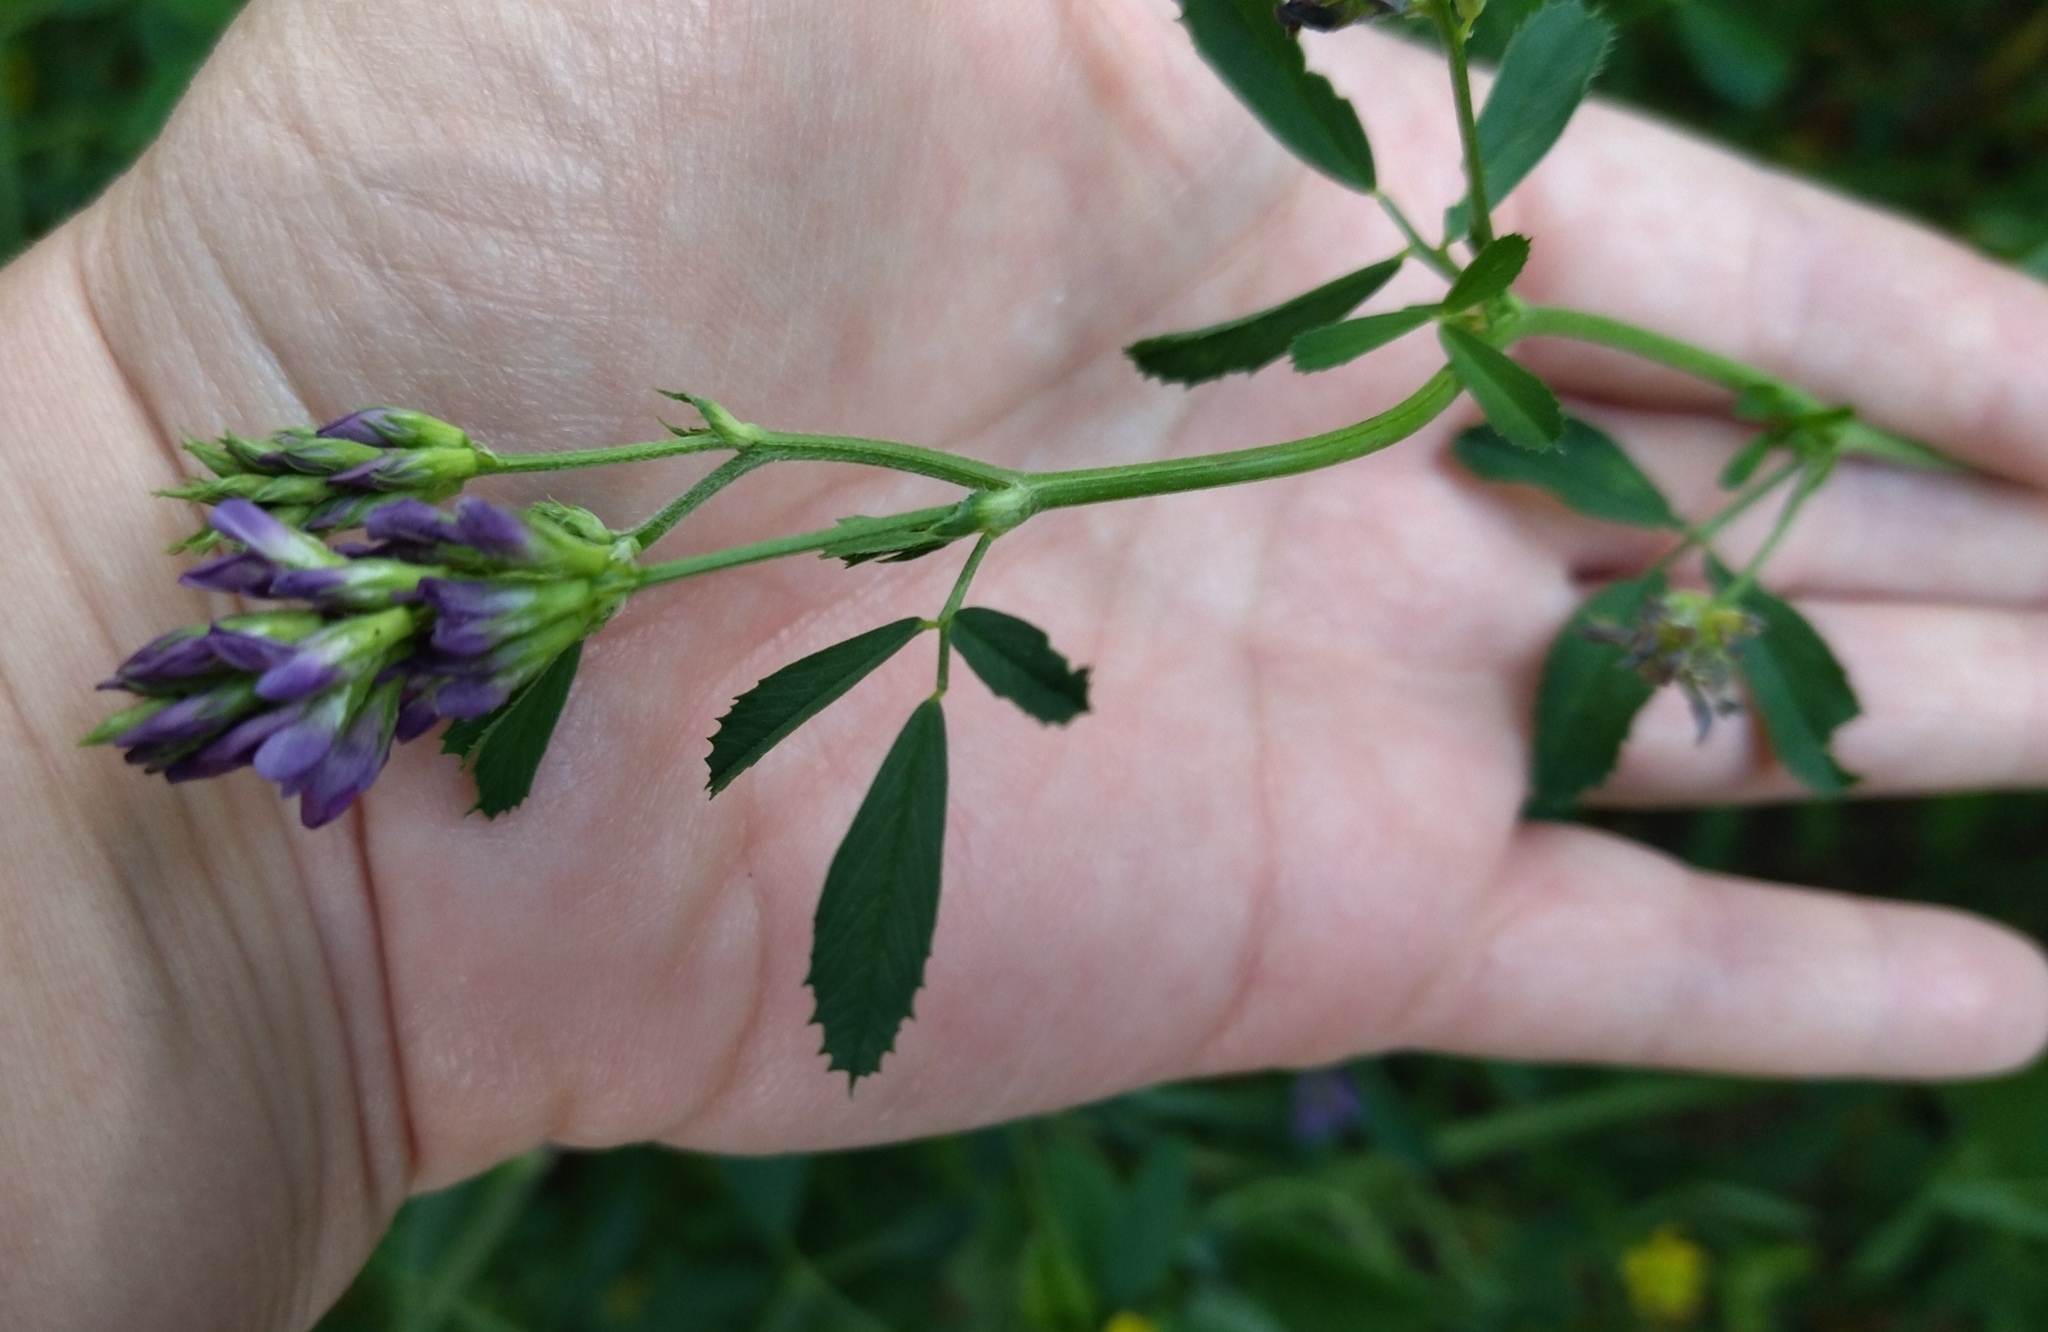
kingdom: Plantae
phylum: Tracheophyta
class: Magnoliopsida
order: Fabales
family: Fabaceae
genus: Medicago
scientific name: Medicago varia
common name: Sand lucerne
